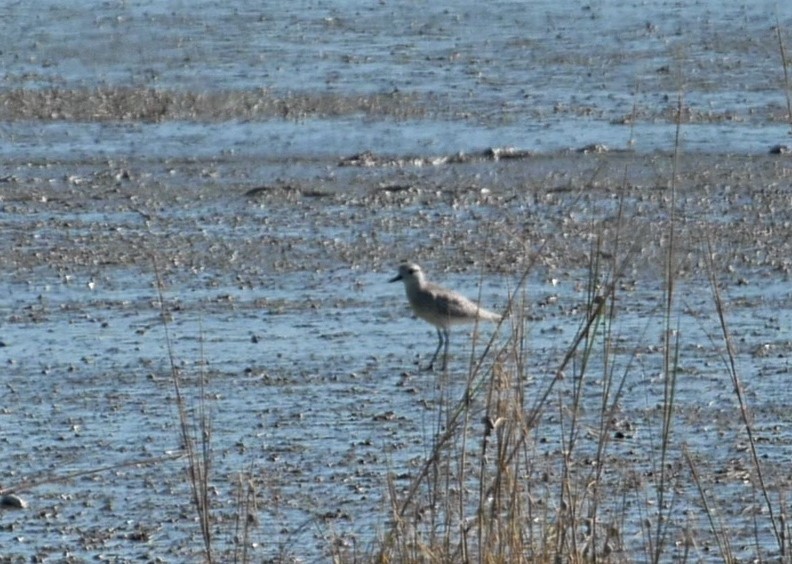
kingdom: Animalia
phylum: Chordata
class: Aves
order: Charadriiformes
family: Charadriidae
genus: Pluvialis
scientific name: Pluvialis squatarola
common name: Grey plover
